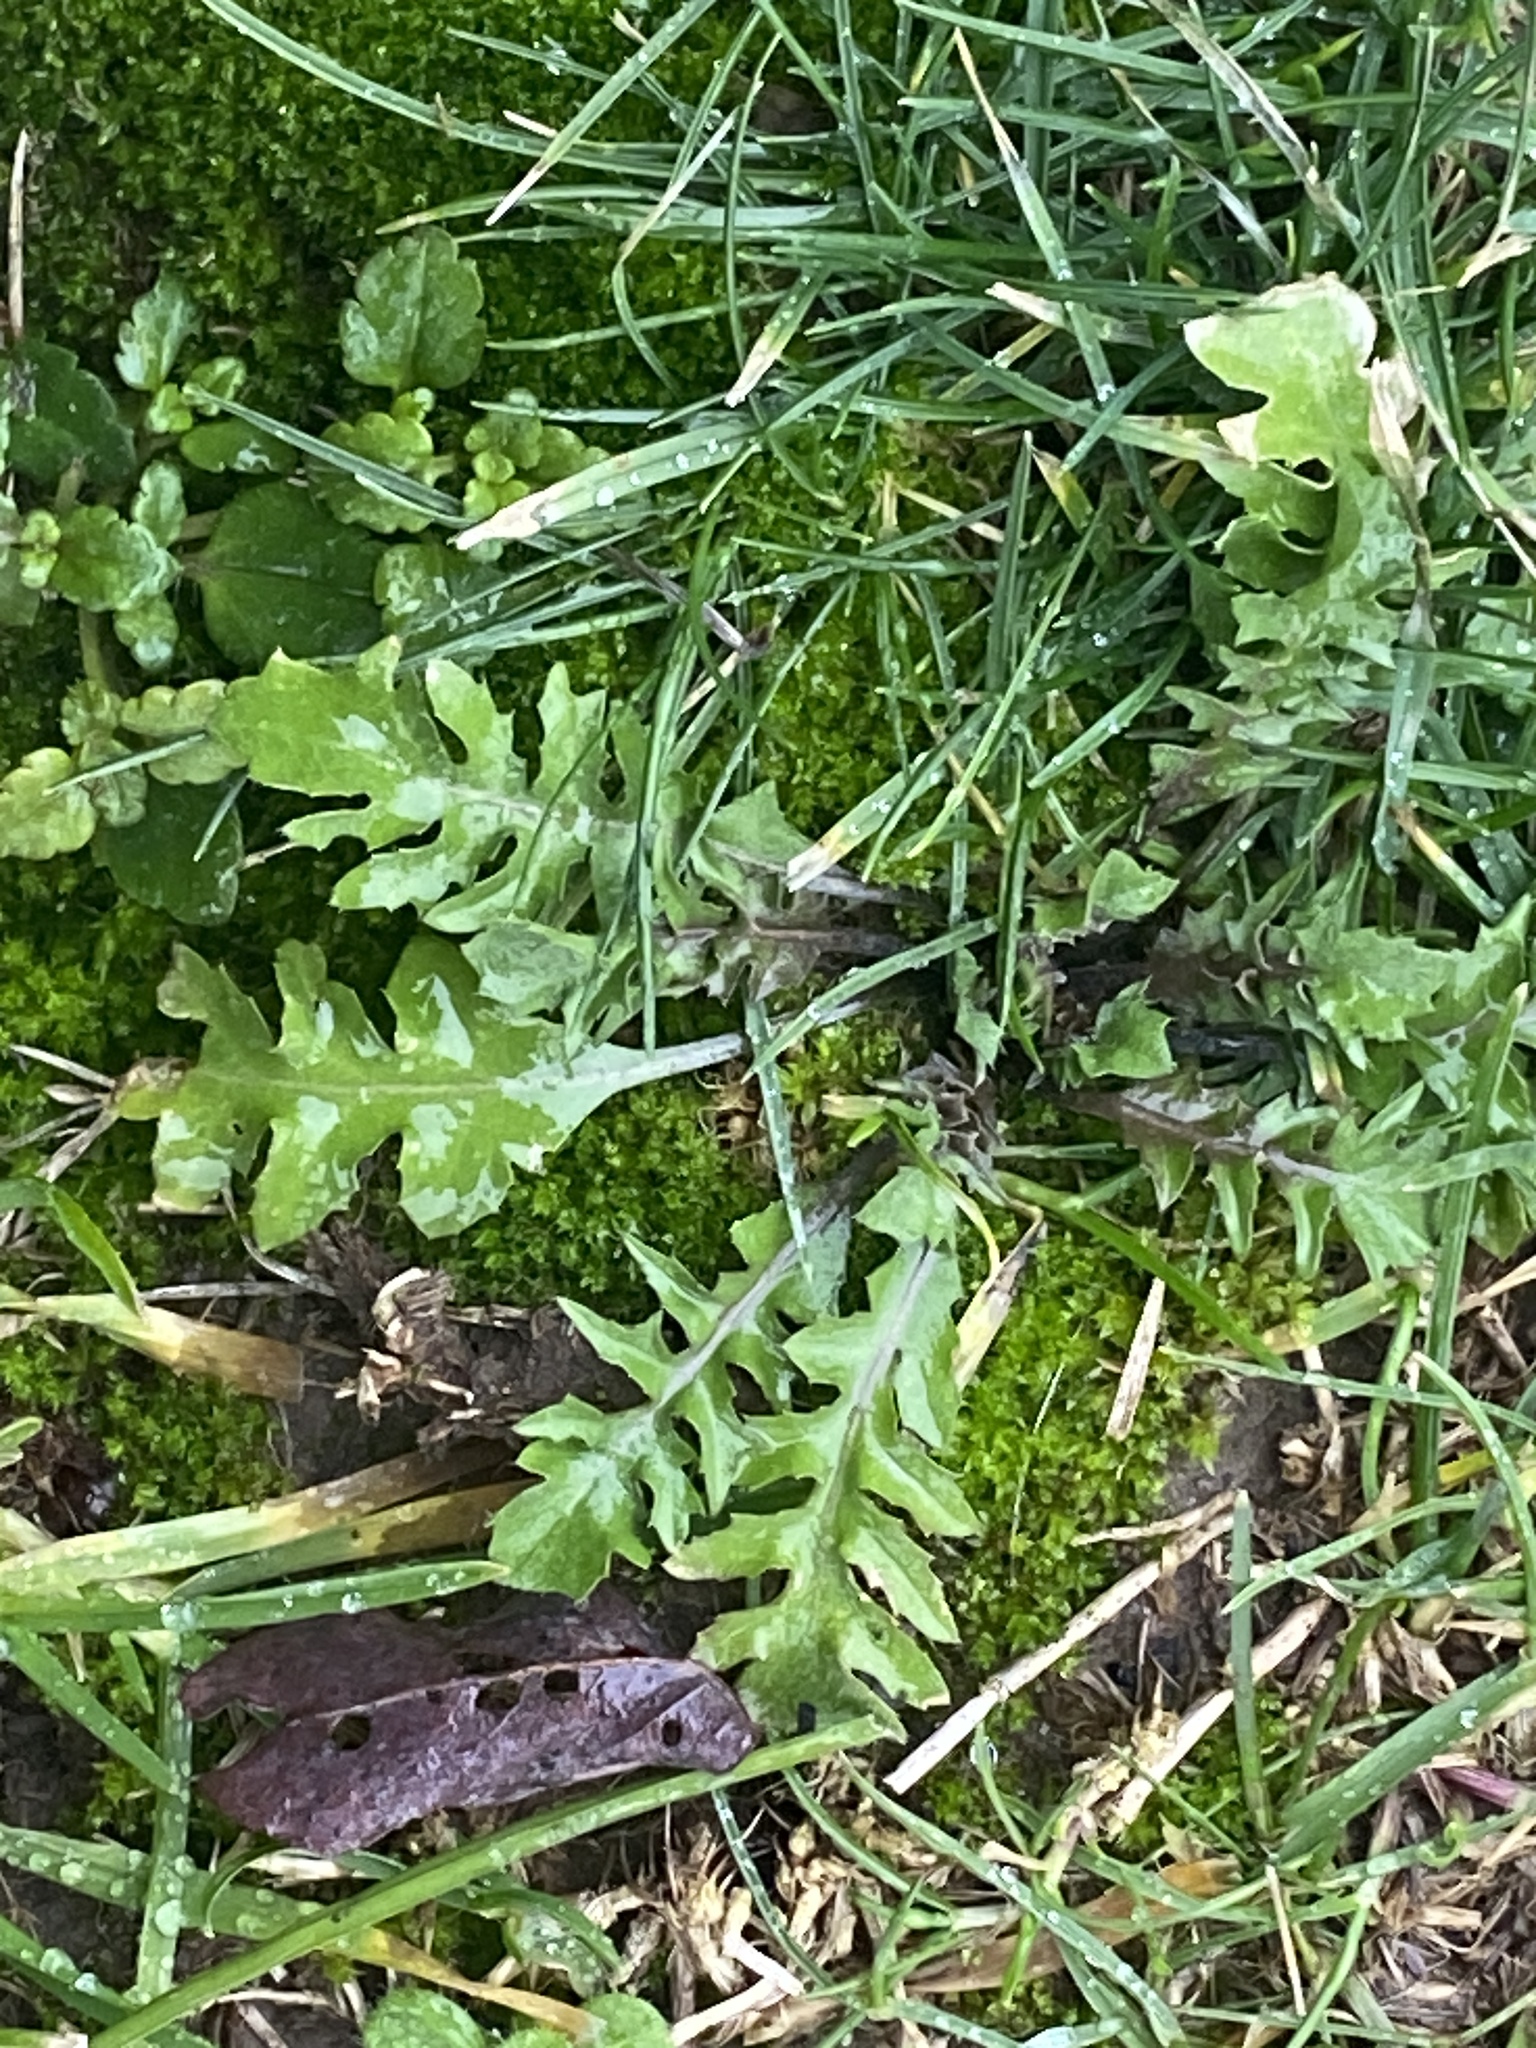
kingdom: Plantae
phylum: Tracheophyta
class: Magnoliopsida
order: Brassicales
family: Brassicaceae
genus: Capsella
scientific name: Capsella bursa-pastoris
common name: Shepherd's purse
